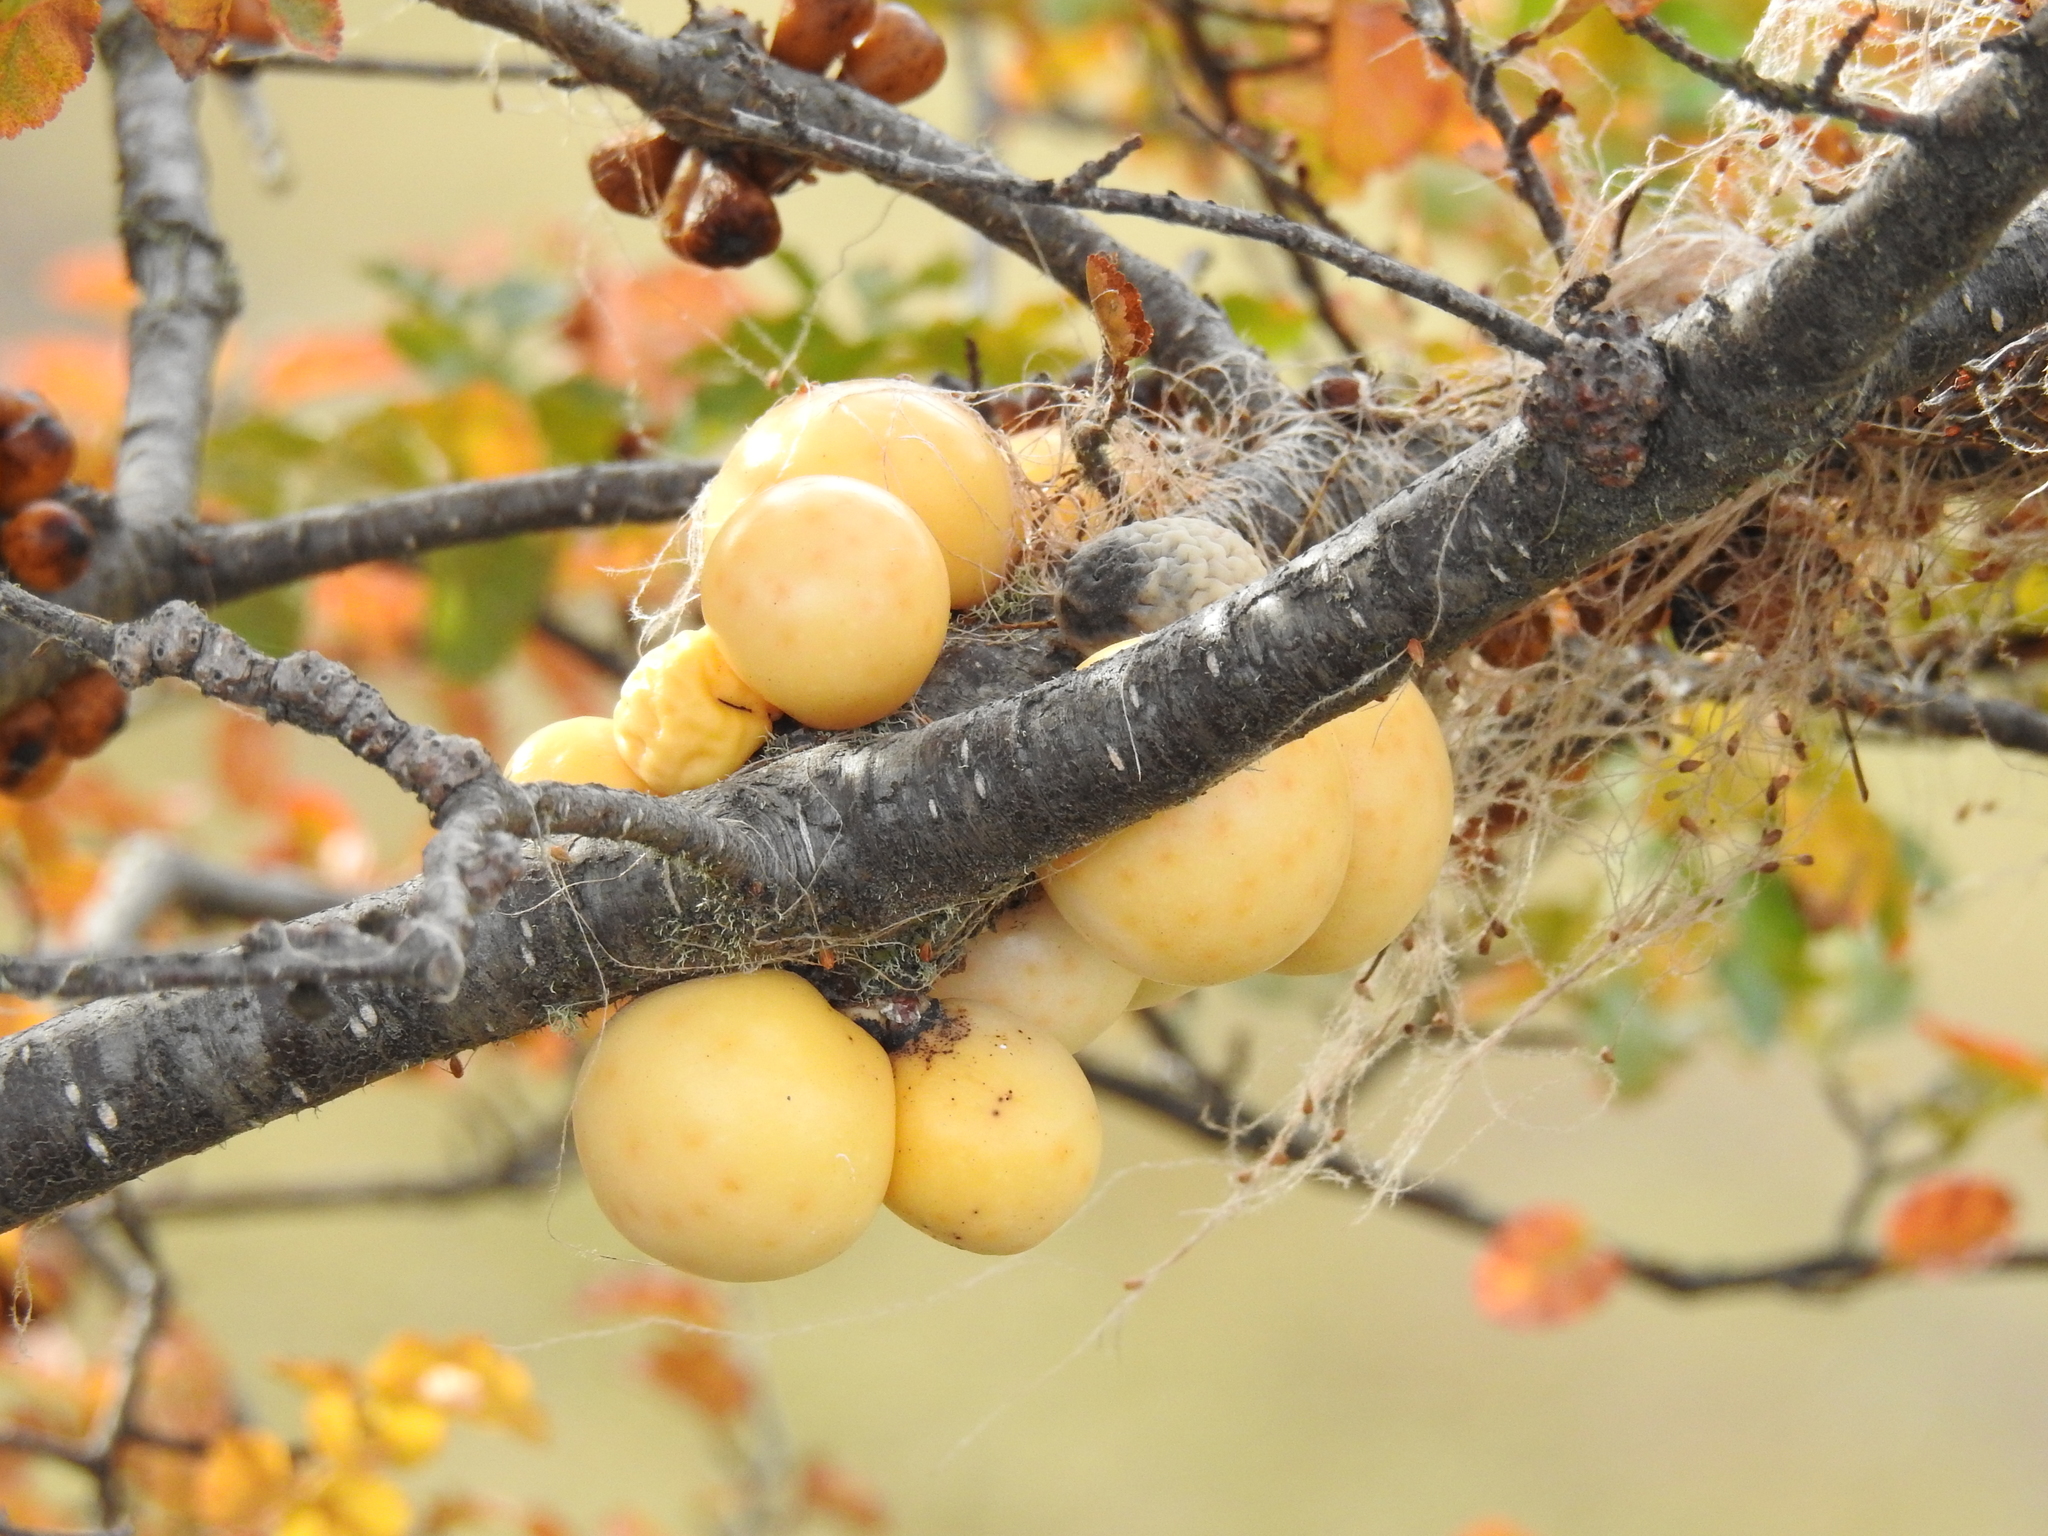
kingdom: Fungi
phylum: Ascomycota
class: Leotiomycetes
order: Cyttariales
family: Cyttariaceae
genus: Cyttaria
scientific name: Cyttaria darwinii
